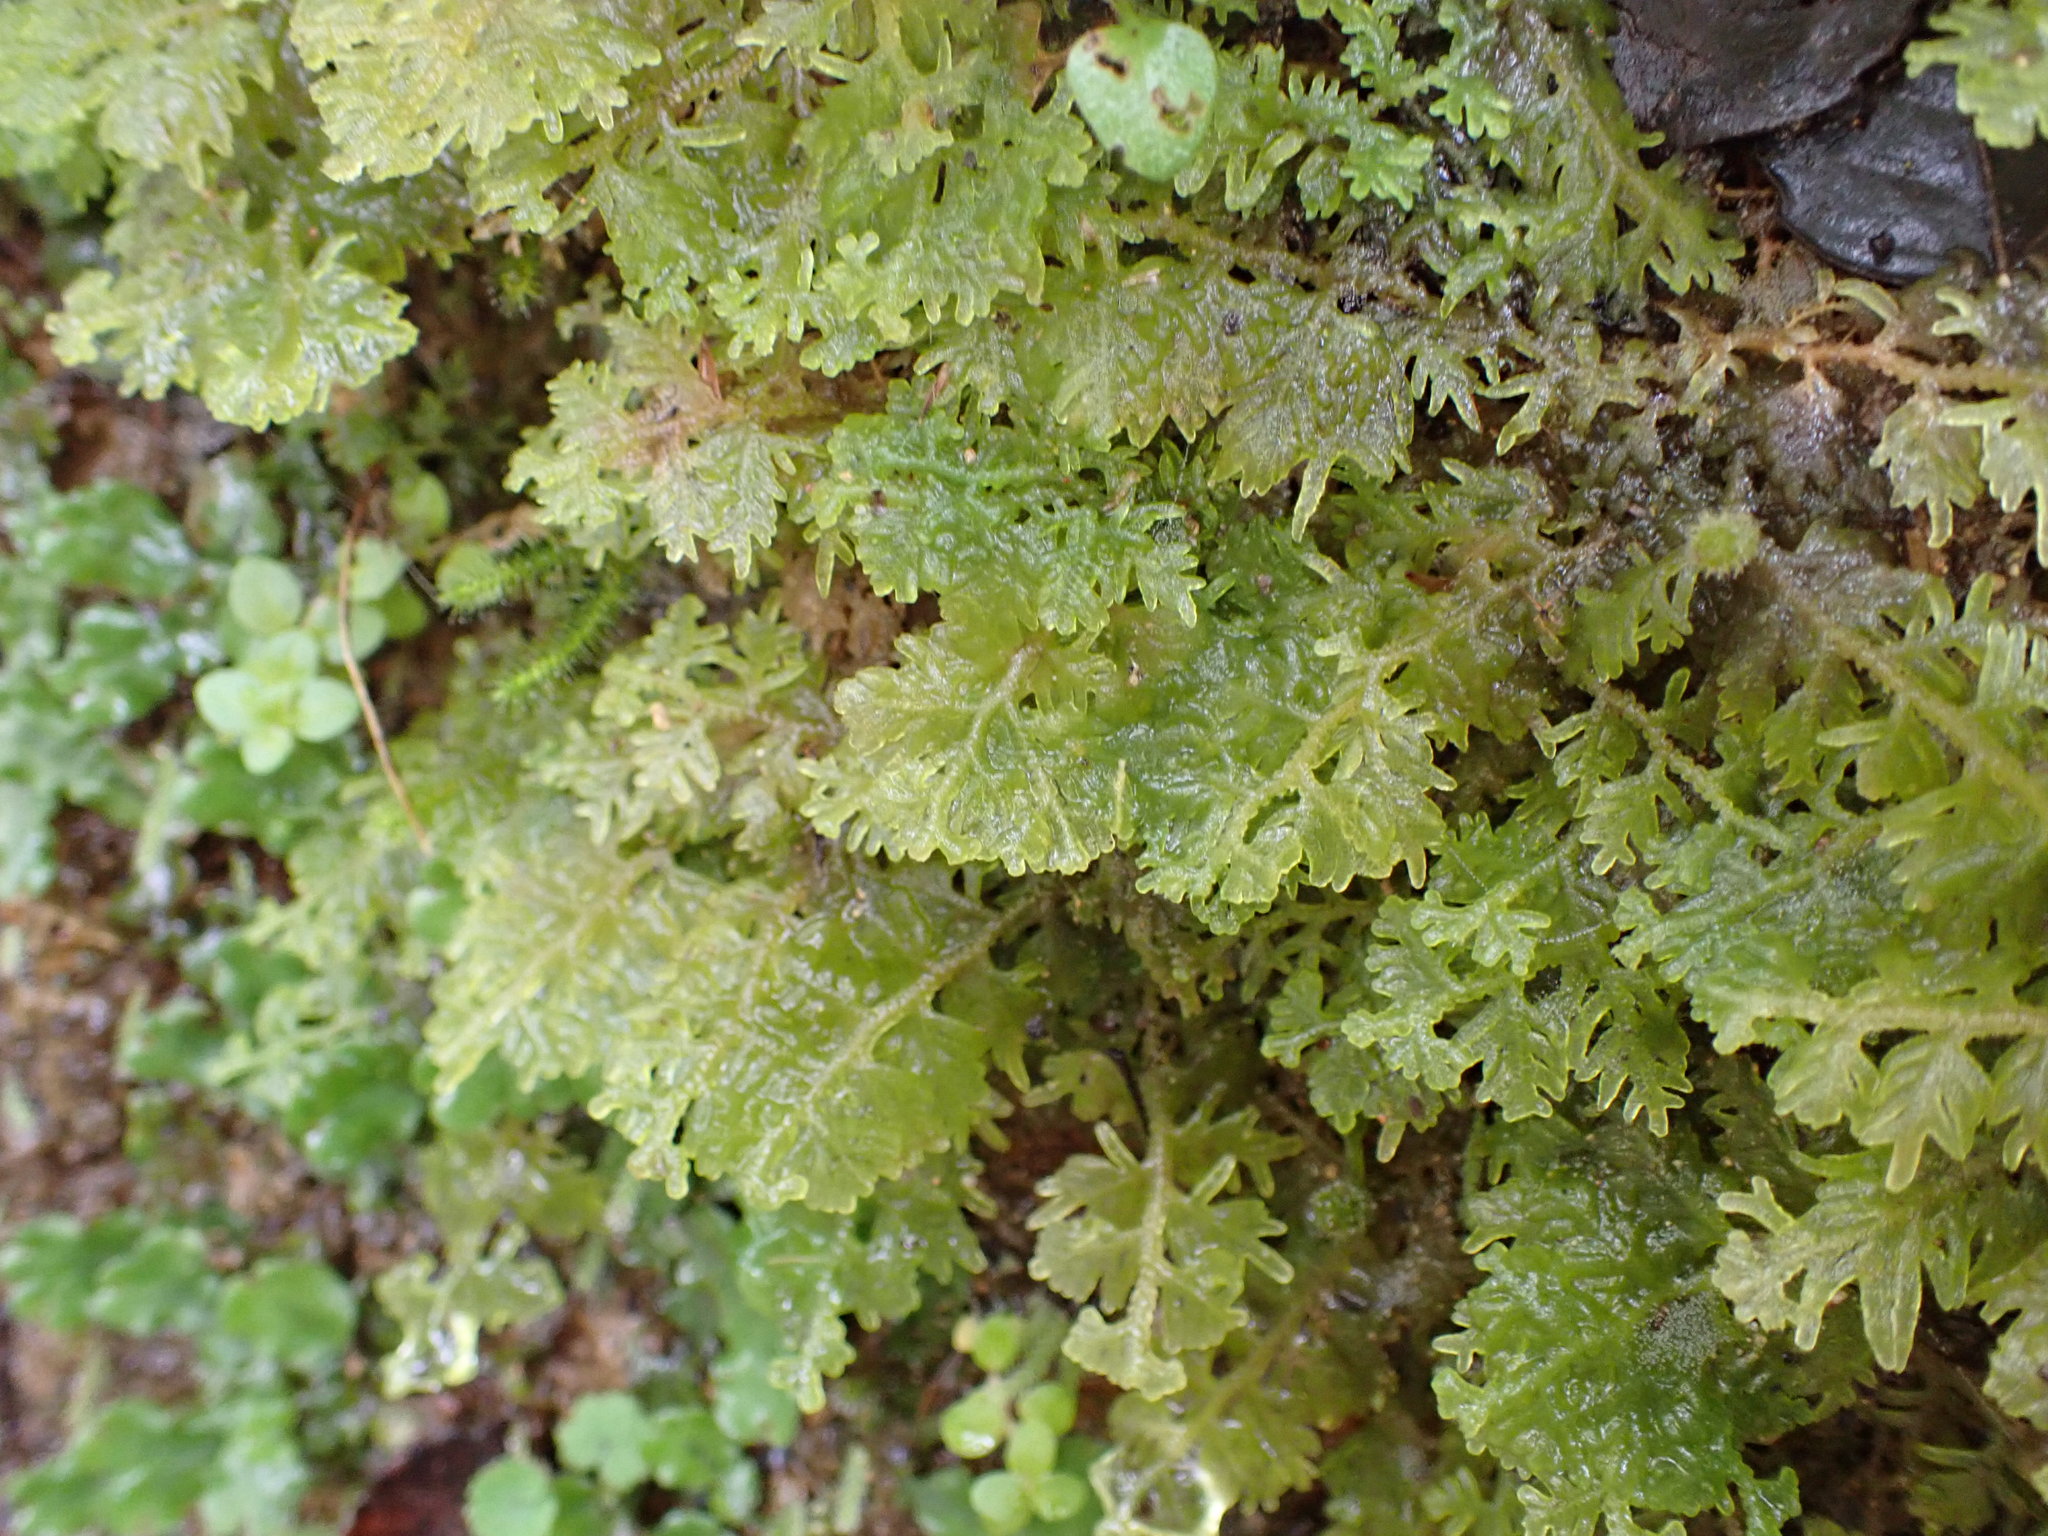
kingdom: Plantae
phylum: Marchantiophyta
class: Jungermanniopsida
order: Jungermanniales
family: Trichocoleaceae
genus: Trichocolea
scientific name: Trichocolea mollissima
